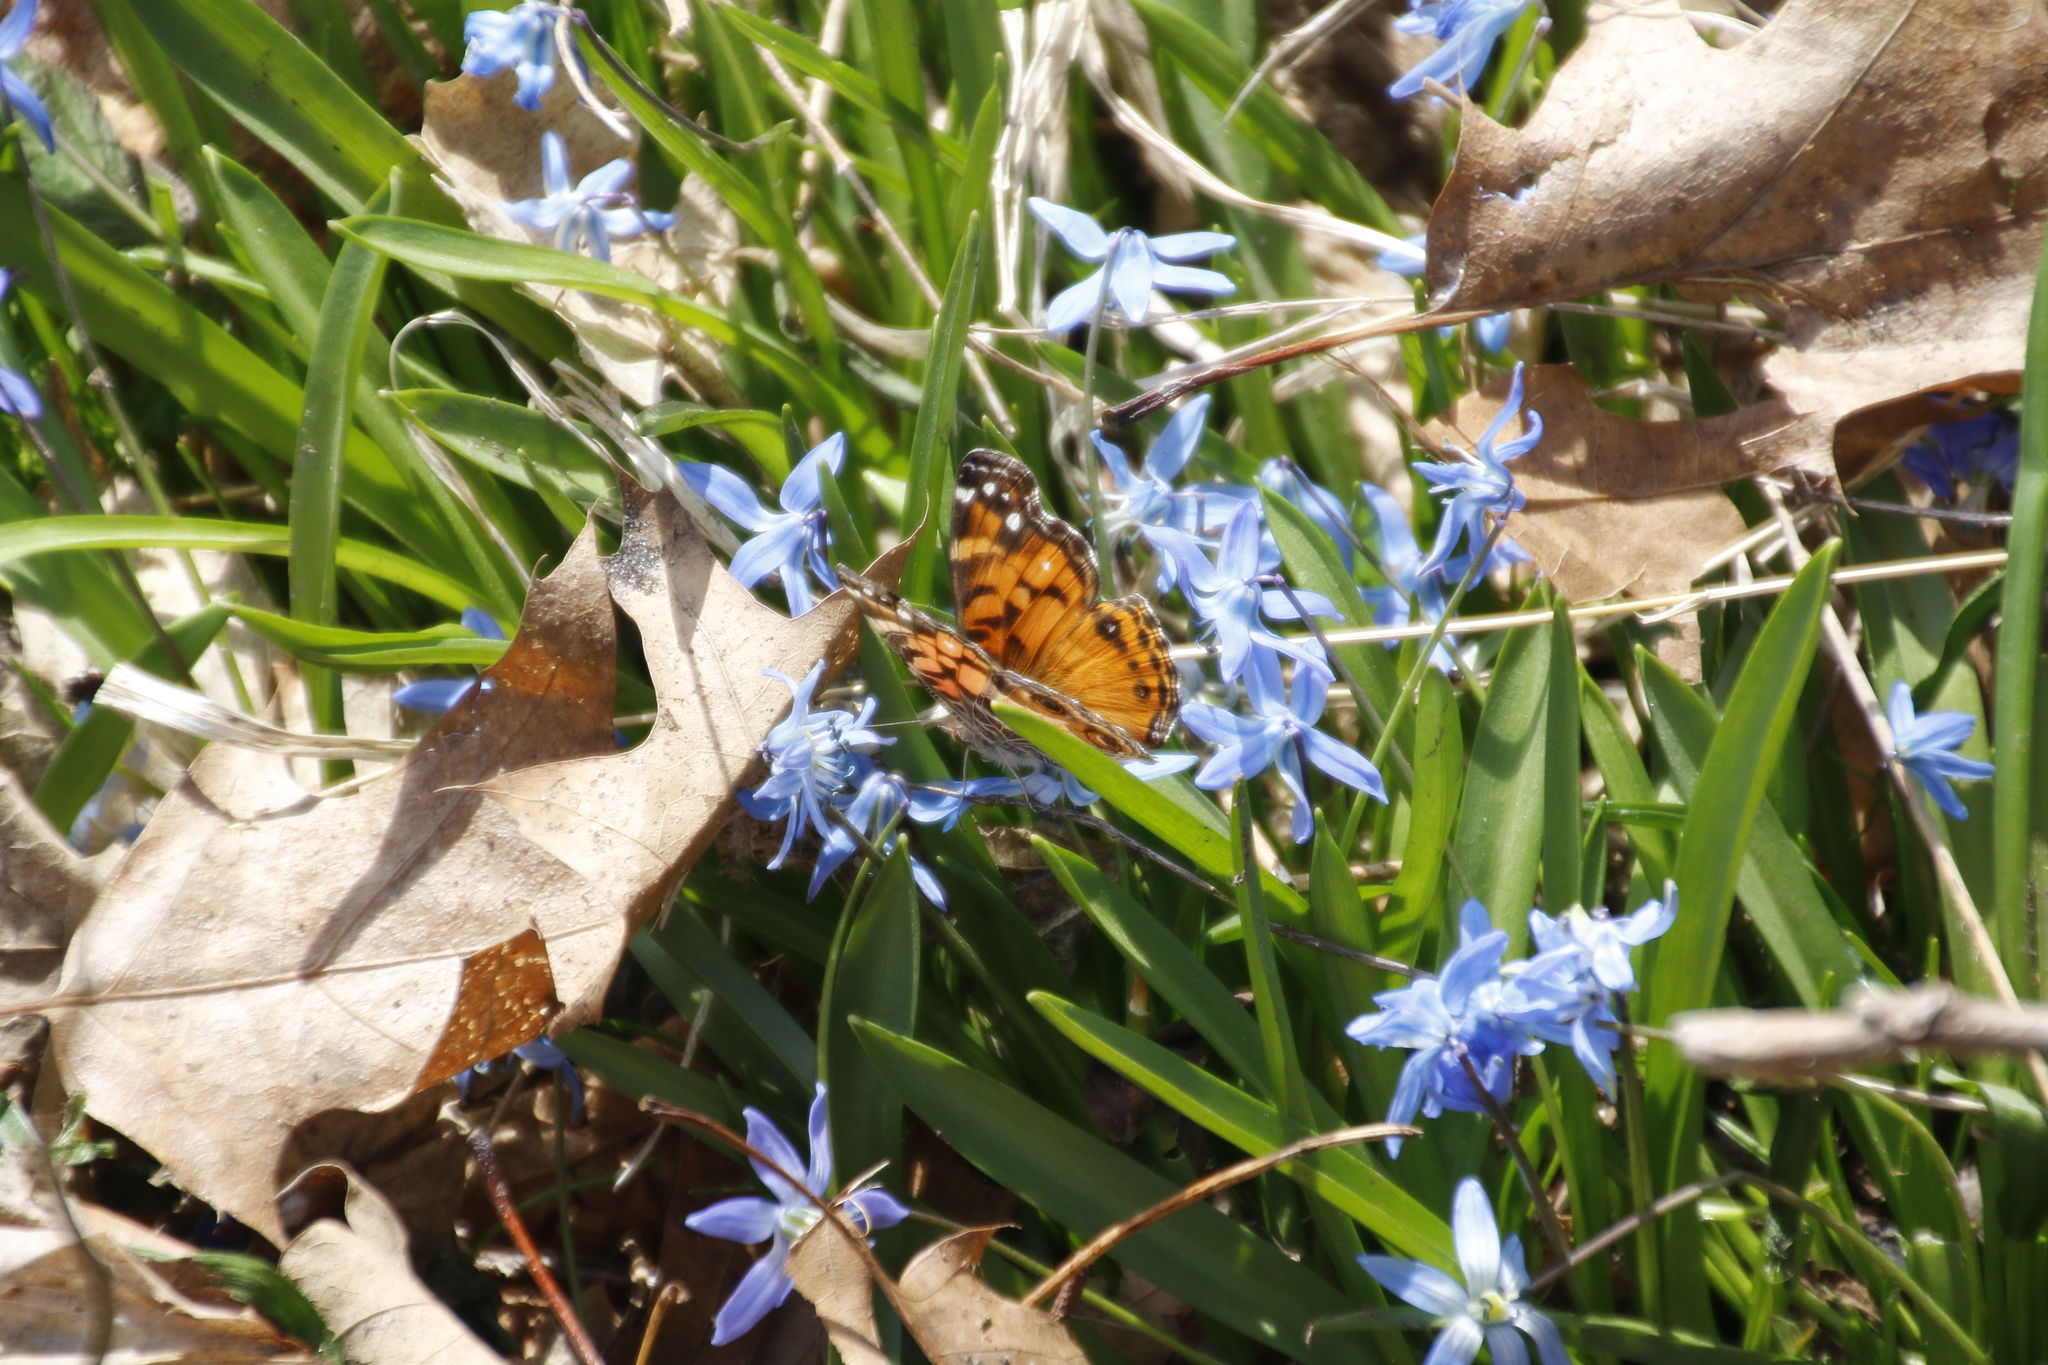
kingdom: Animalia
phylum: Arthropoda
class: Insecta
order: Lepidoptera
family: Nymphalidae
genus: Vanessa
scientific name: Vanessa virginiensis
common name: American lady
